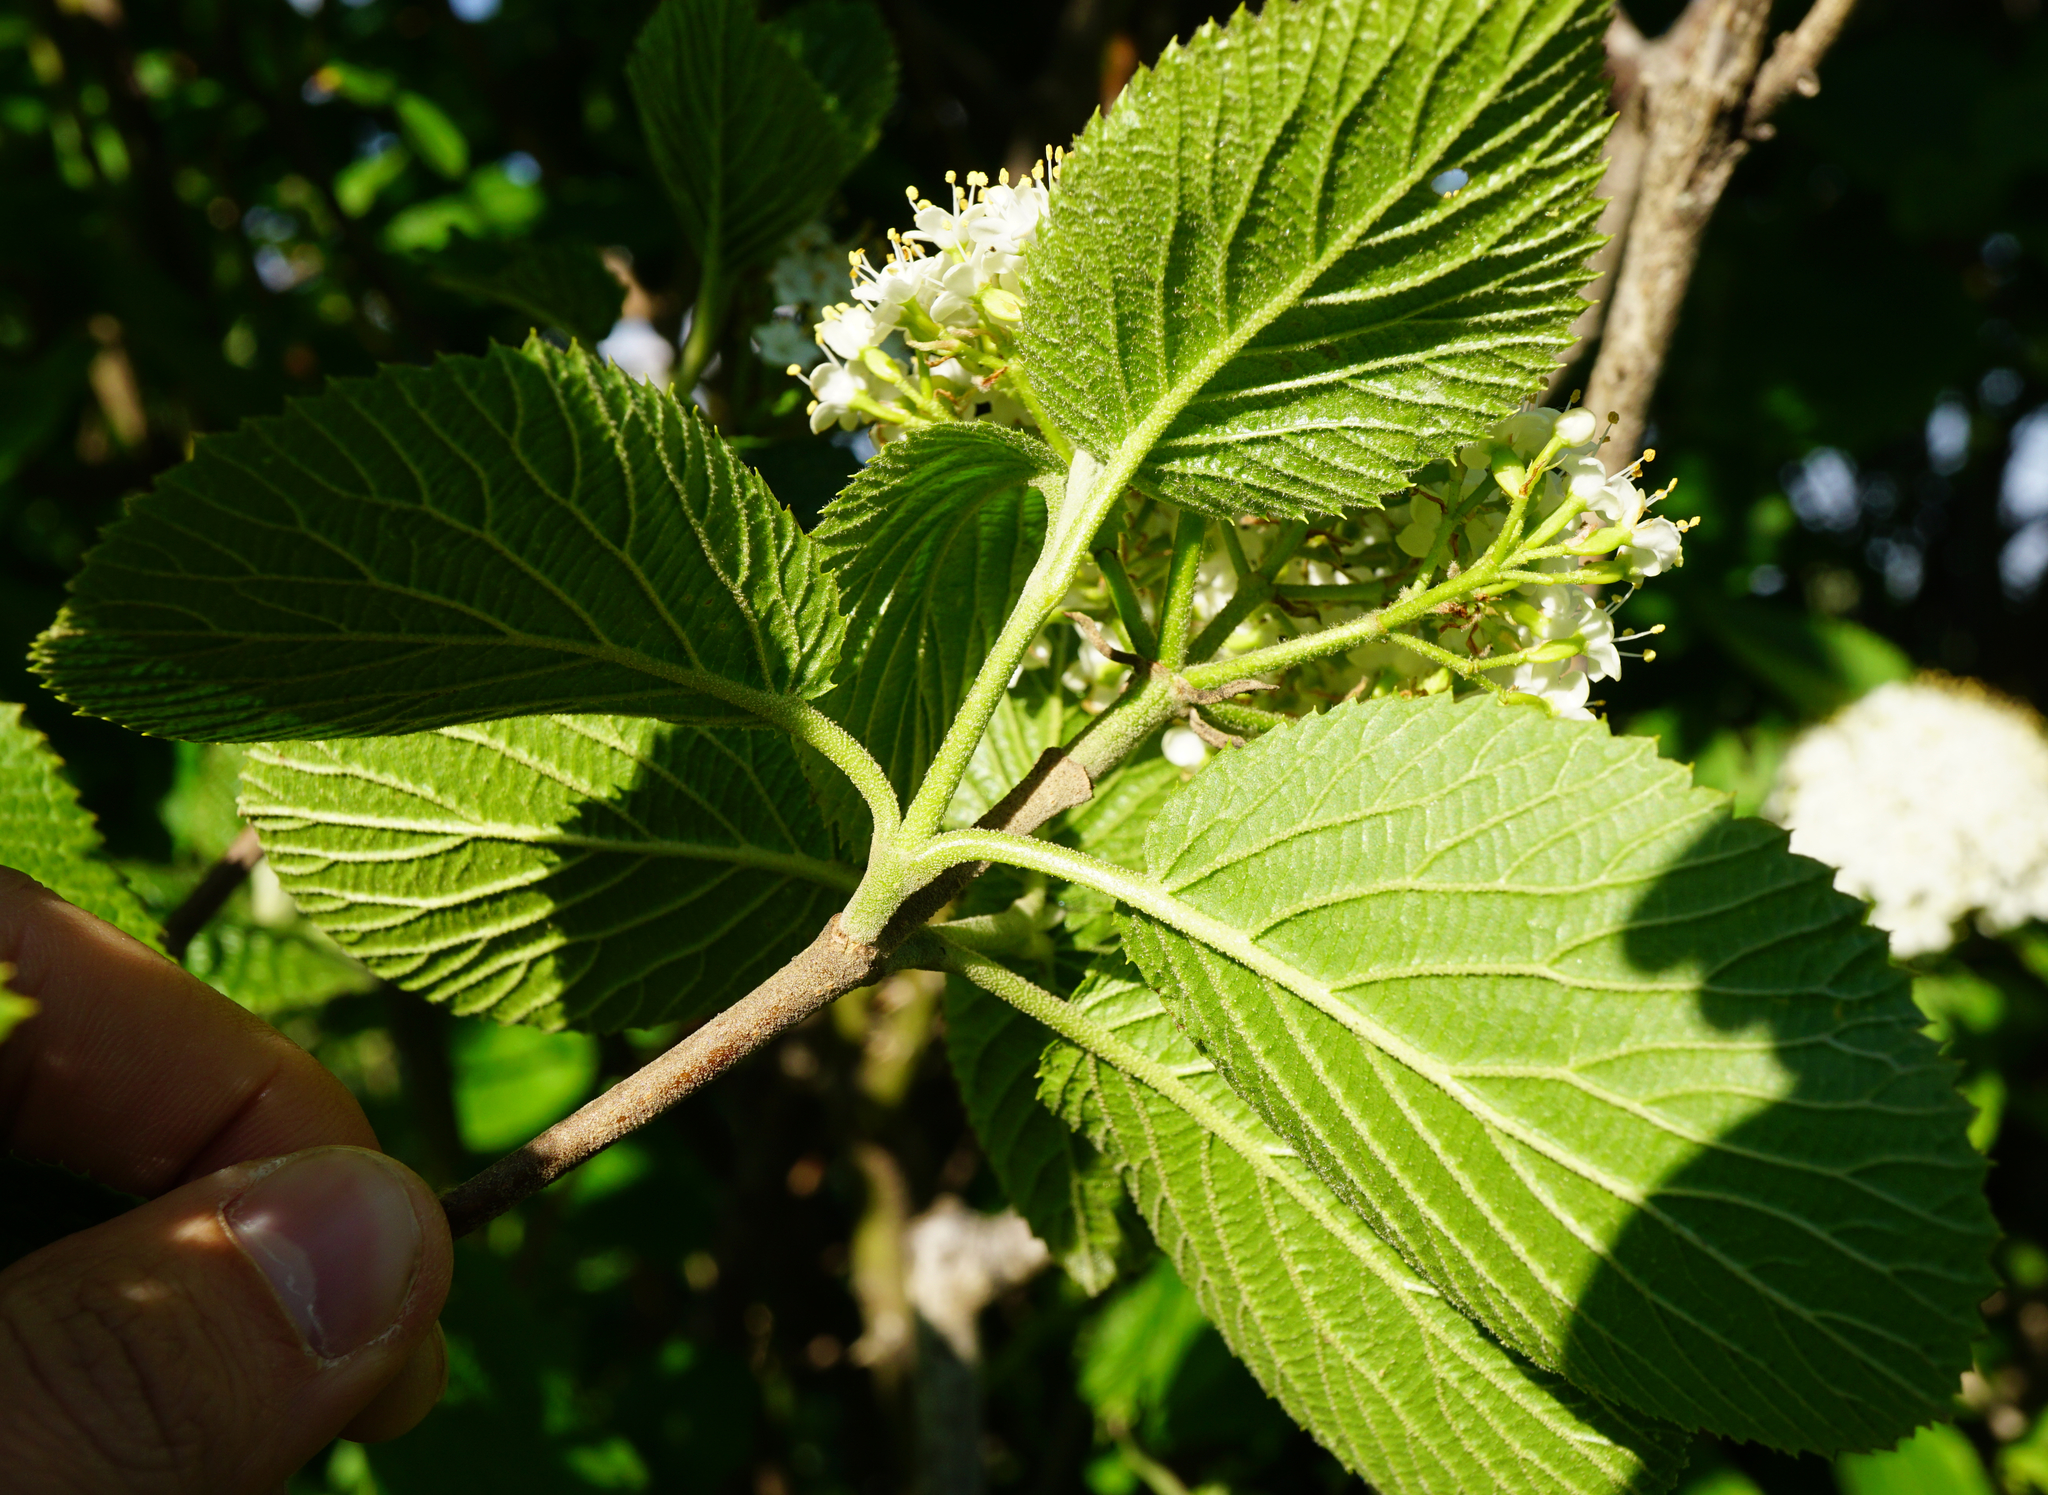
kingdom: Plantae
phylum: Tracheophyta
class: Magnoliopsida
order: Dipsacales
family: Viburnaceae
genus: Viburnum
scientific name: Viburnum lantana
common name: Wayfaring tree
